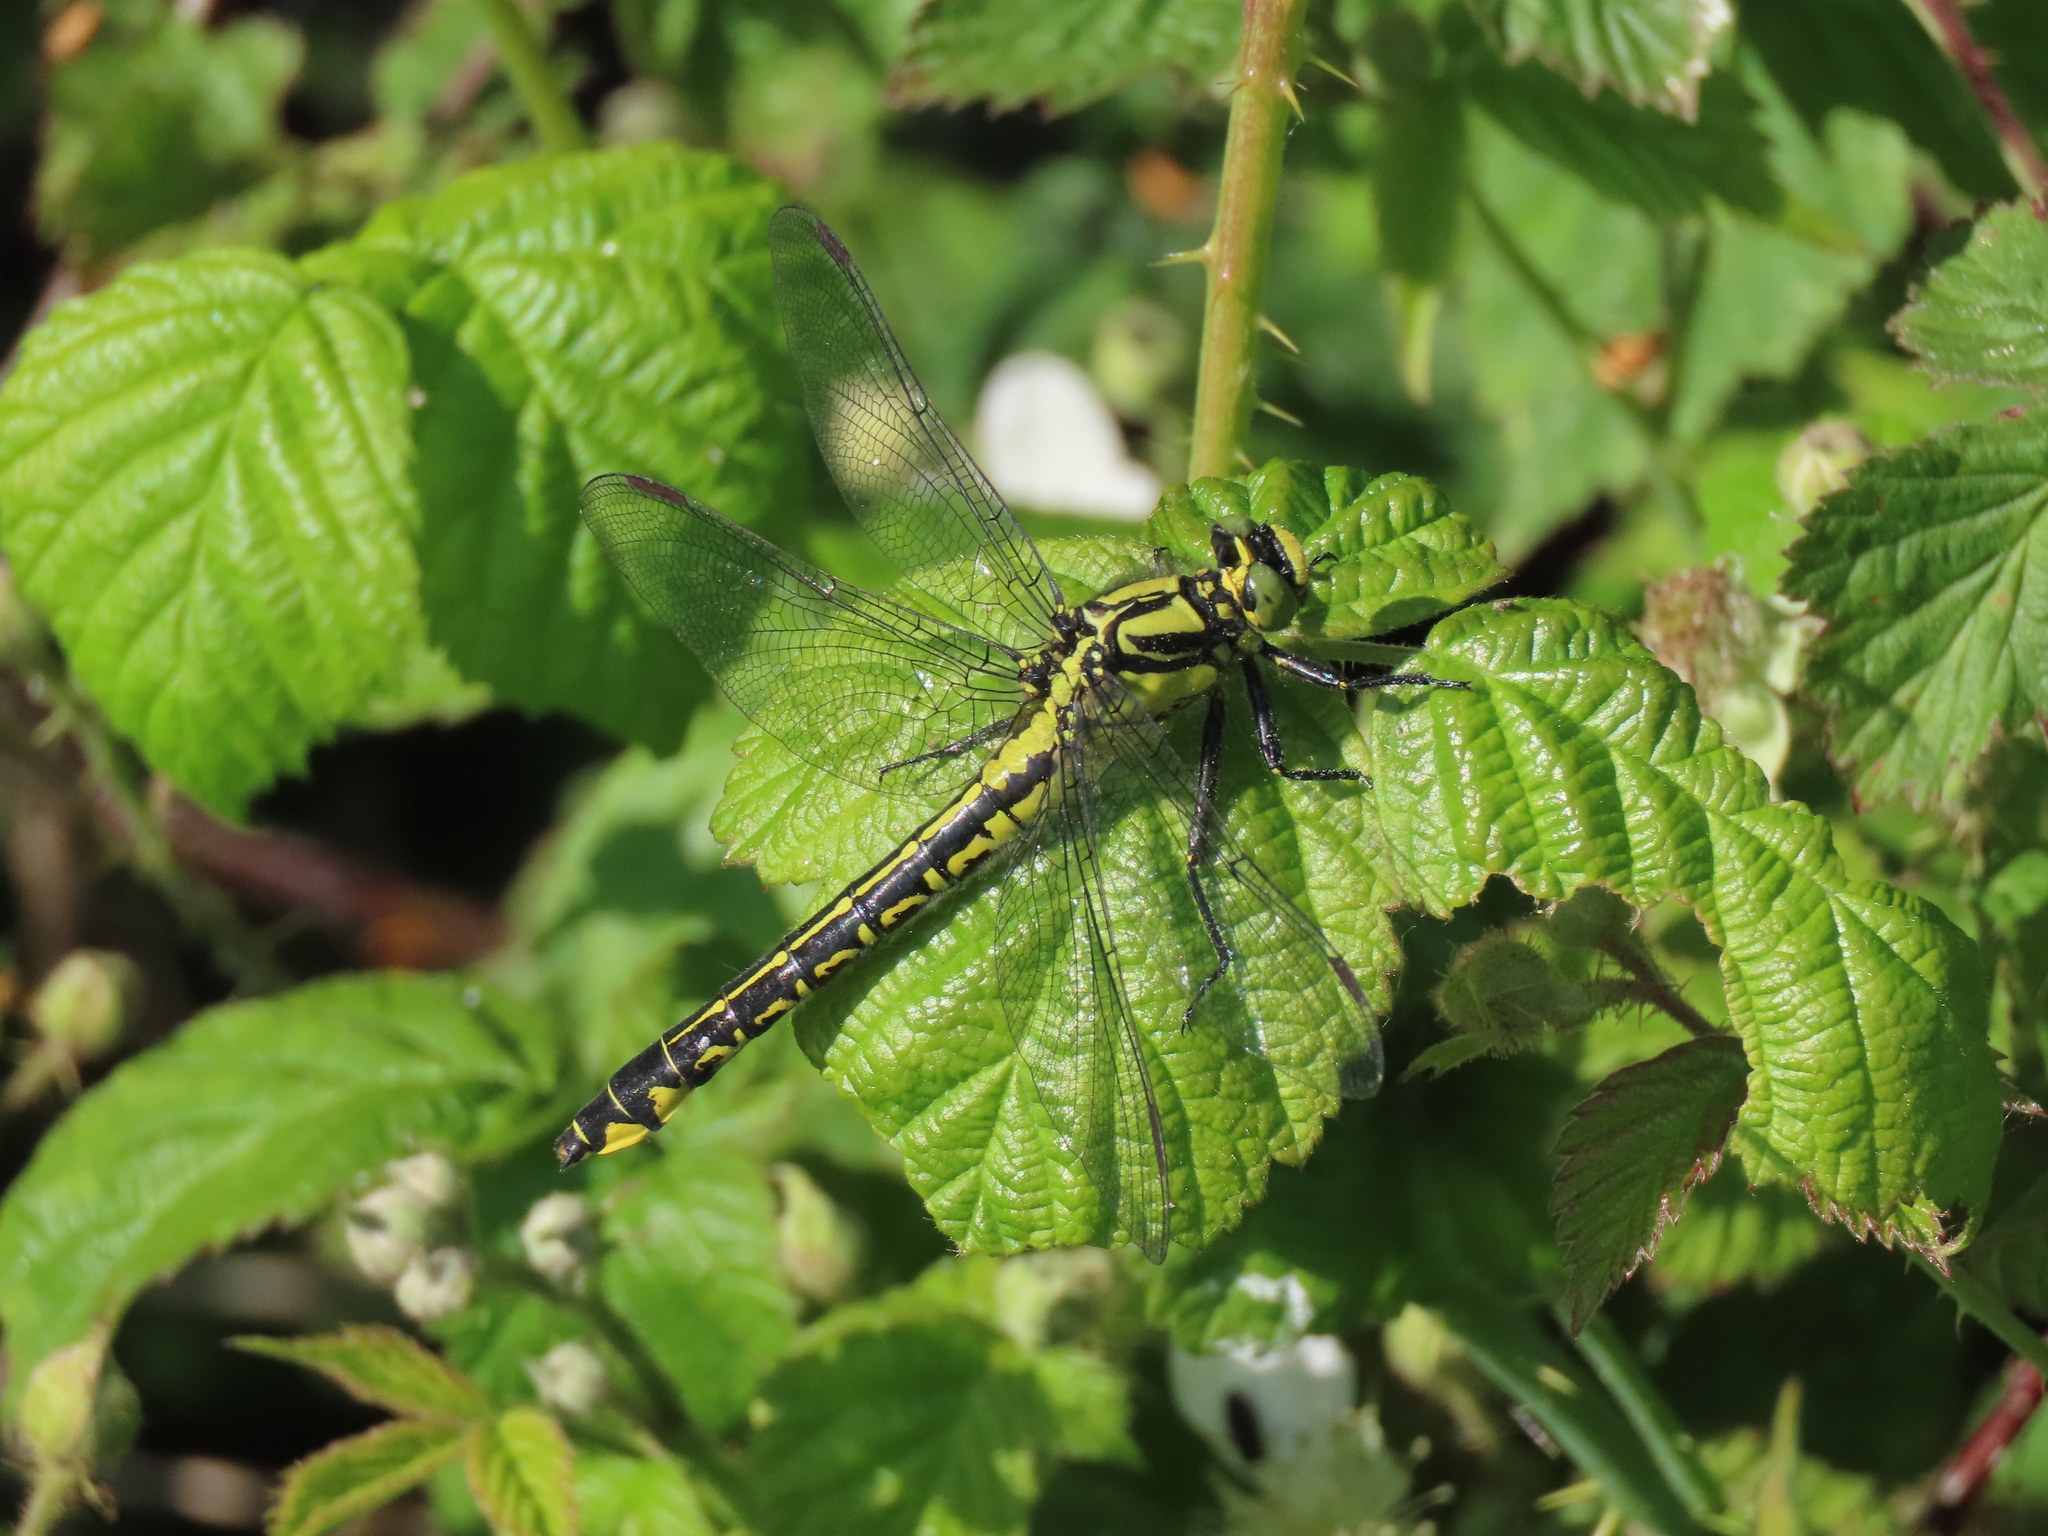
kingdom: Animalia
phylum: Arthropoda
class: Insecta
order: Odonata
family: Gomphidae
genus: Gomphus
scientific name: Gomphus vulgatissimus
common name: Club-tailed dragonfly
